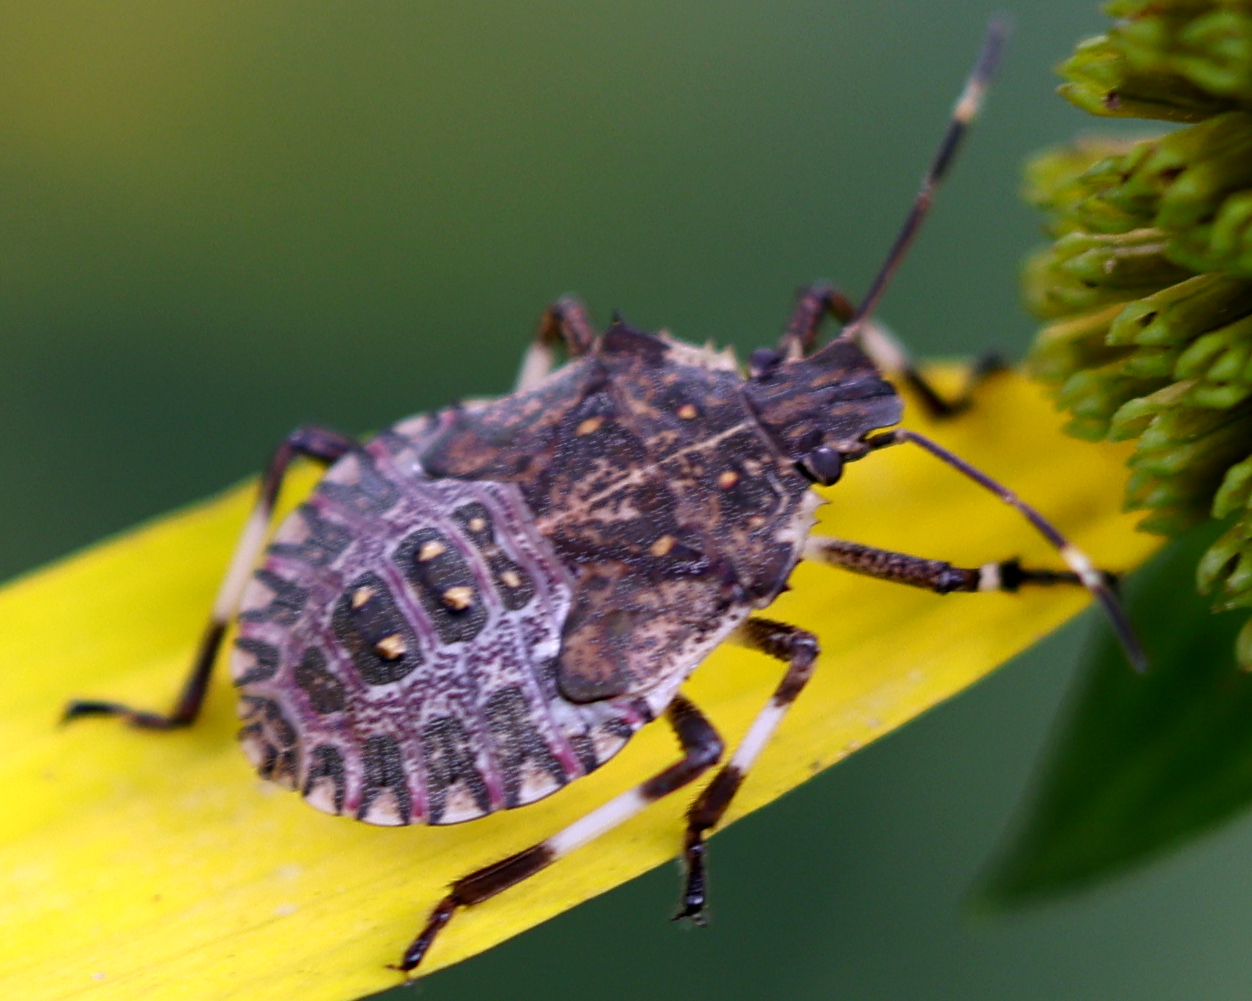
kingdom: Animalia
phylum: Arthropoda
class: Insecta
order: Hemiptera
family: Pentatomidae
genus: Halyomorpha
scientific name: Halyomorpha halys
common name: Brown marmorated stink bug
